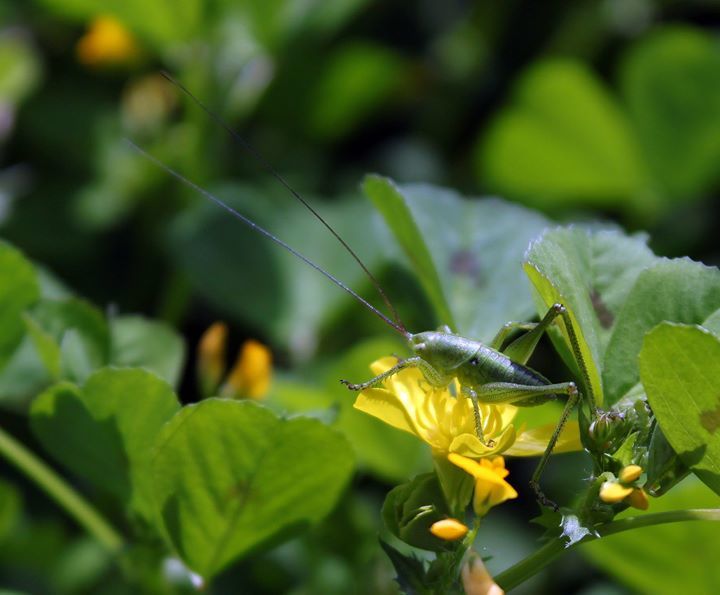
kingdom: Animalia
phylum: Arthropoda
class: Insecta
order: Orthoptera
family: Tettigoniidae
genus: Tettigonia
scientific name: Tettigonia viridissima
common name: Great green bush-cricket
